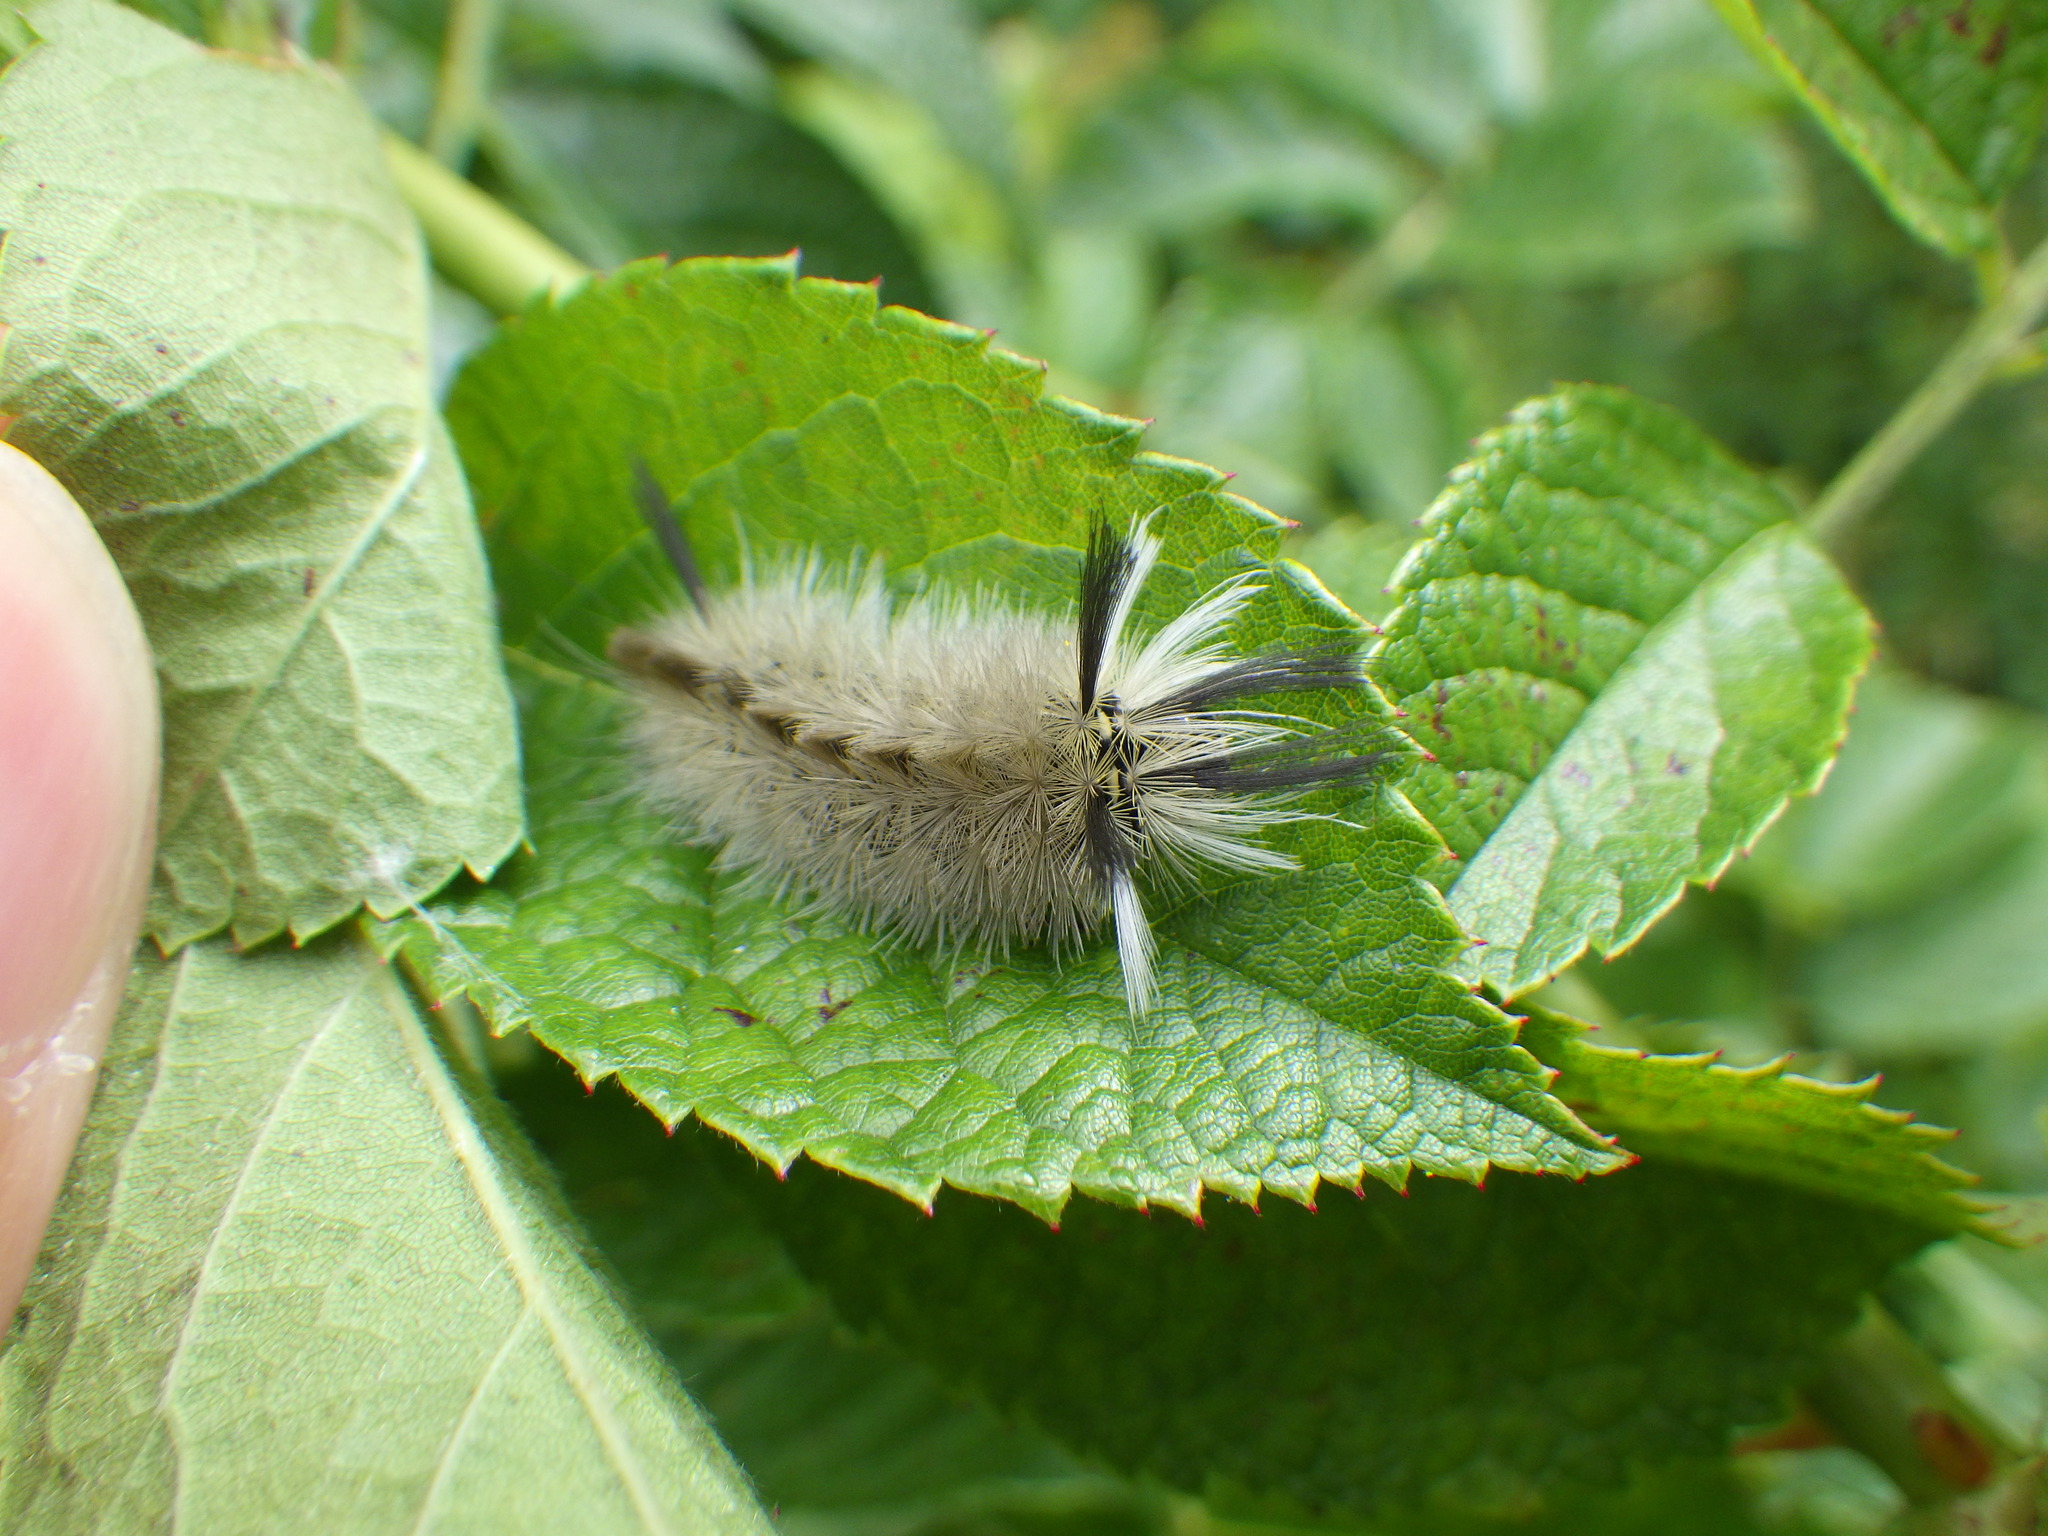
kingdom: Animalia
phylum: Arthropoda
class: Insecta
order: Lepidoptera
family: Erebidae
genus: Halysidota
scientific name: Halysidota tessellaris
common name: Banded tussock moth
